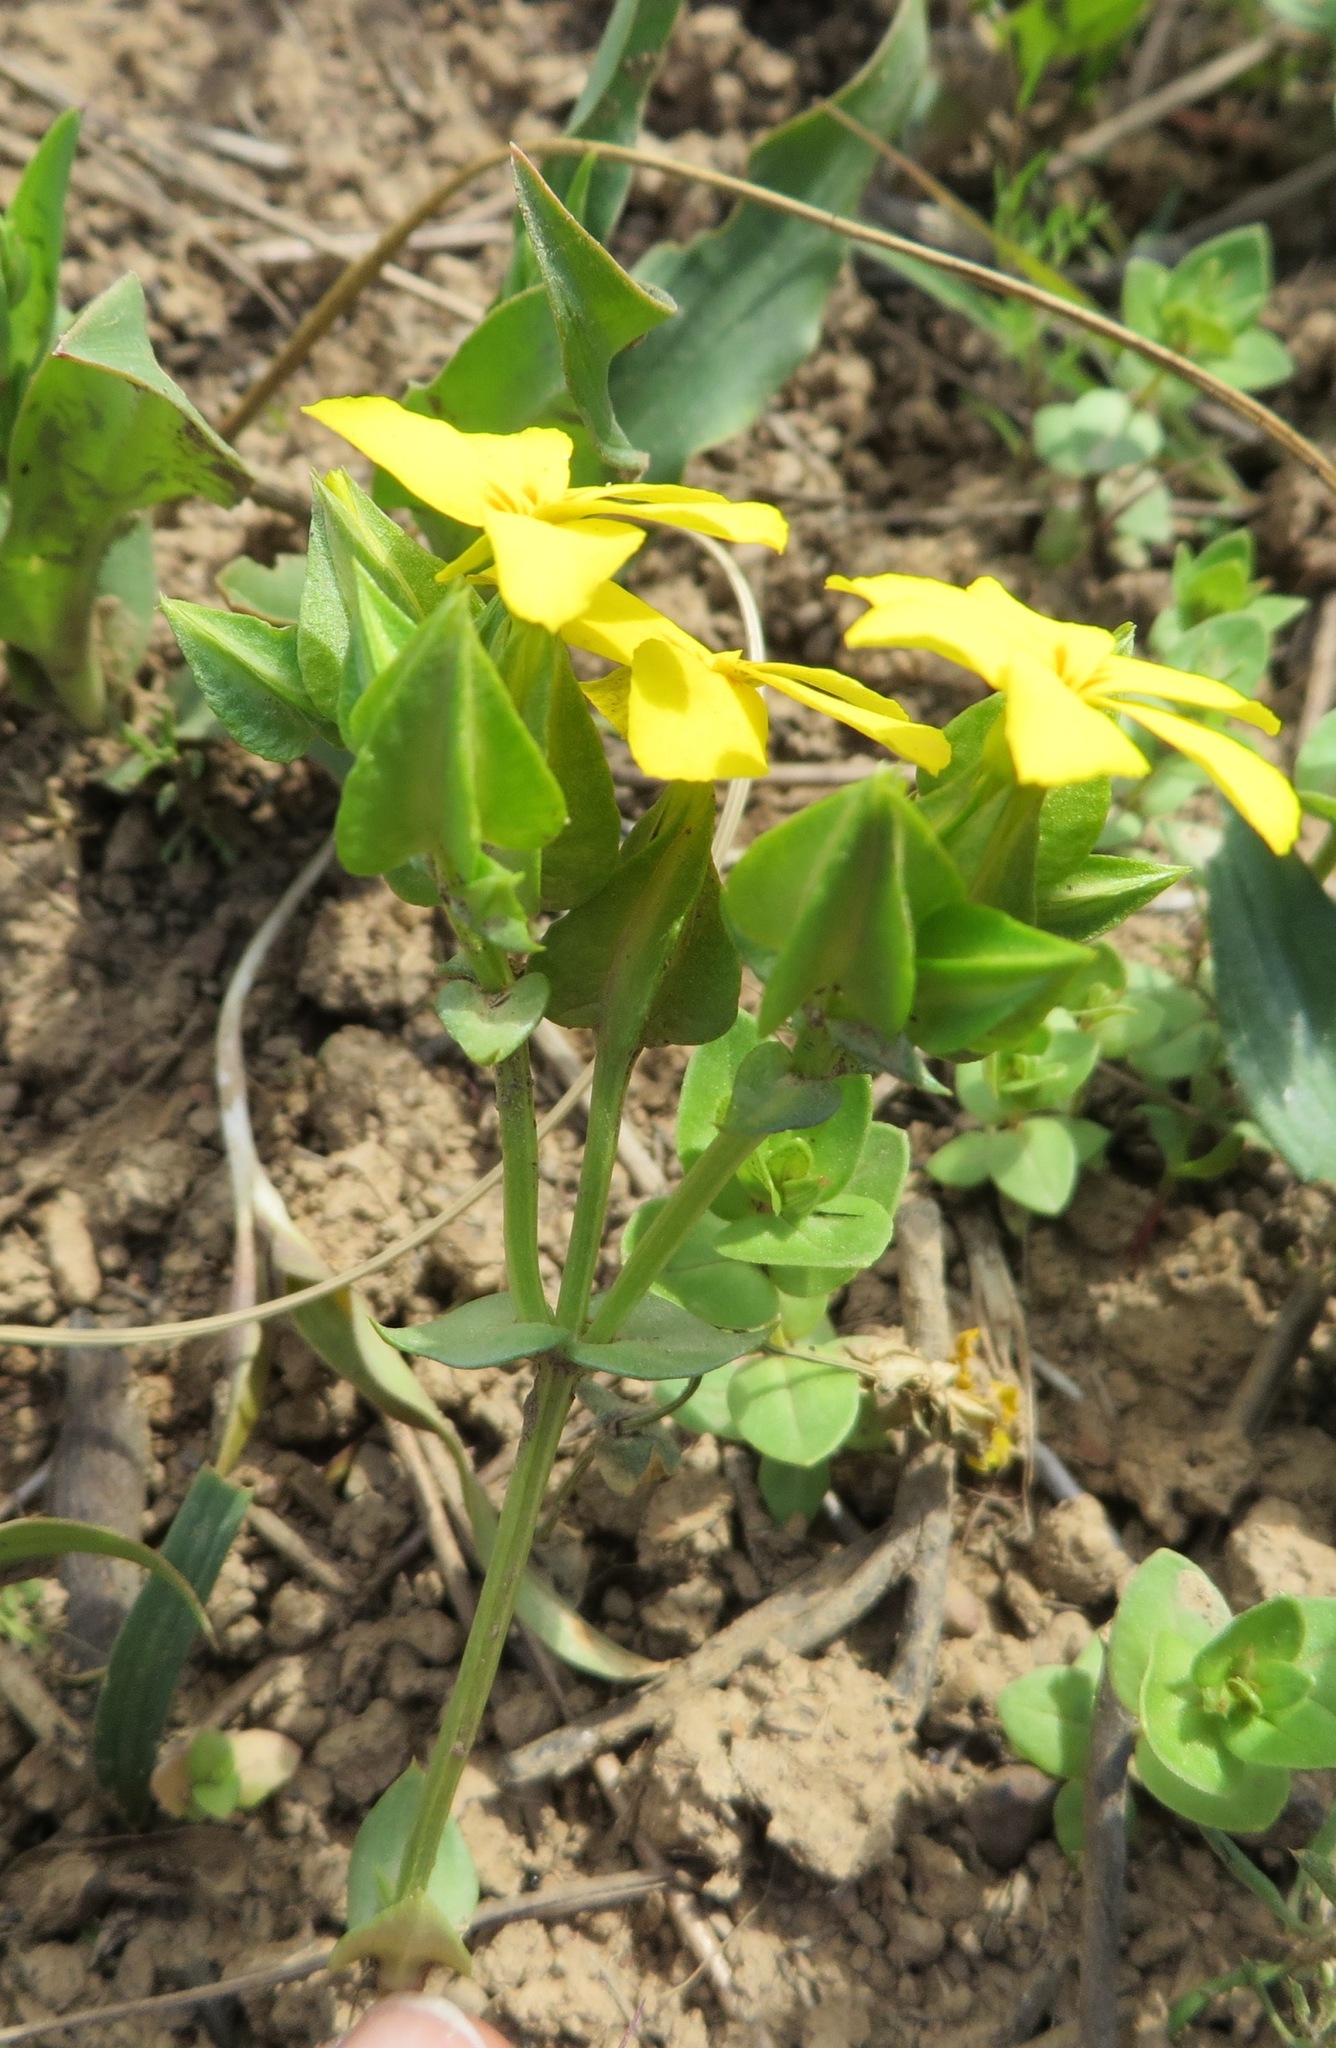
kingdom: Plantae
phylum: Tracheophyta
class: Magnoliopsida
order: Gentianales
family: Gentianaceae
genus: Sebaea
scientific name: Sebaea exacoides
